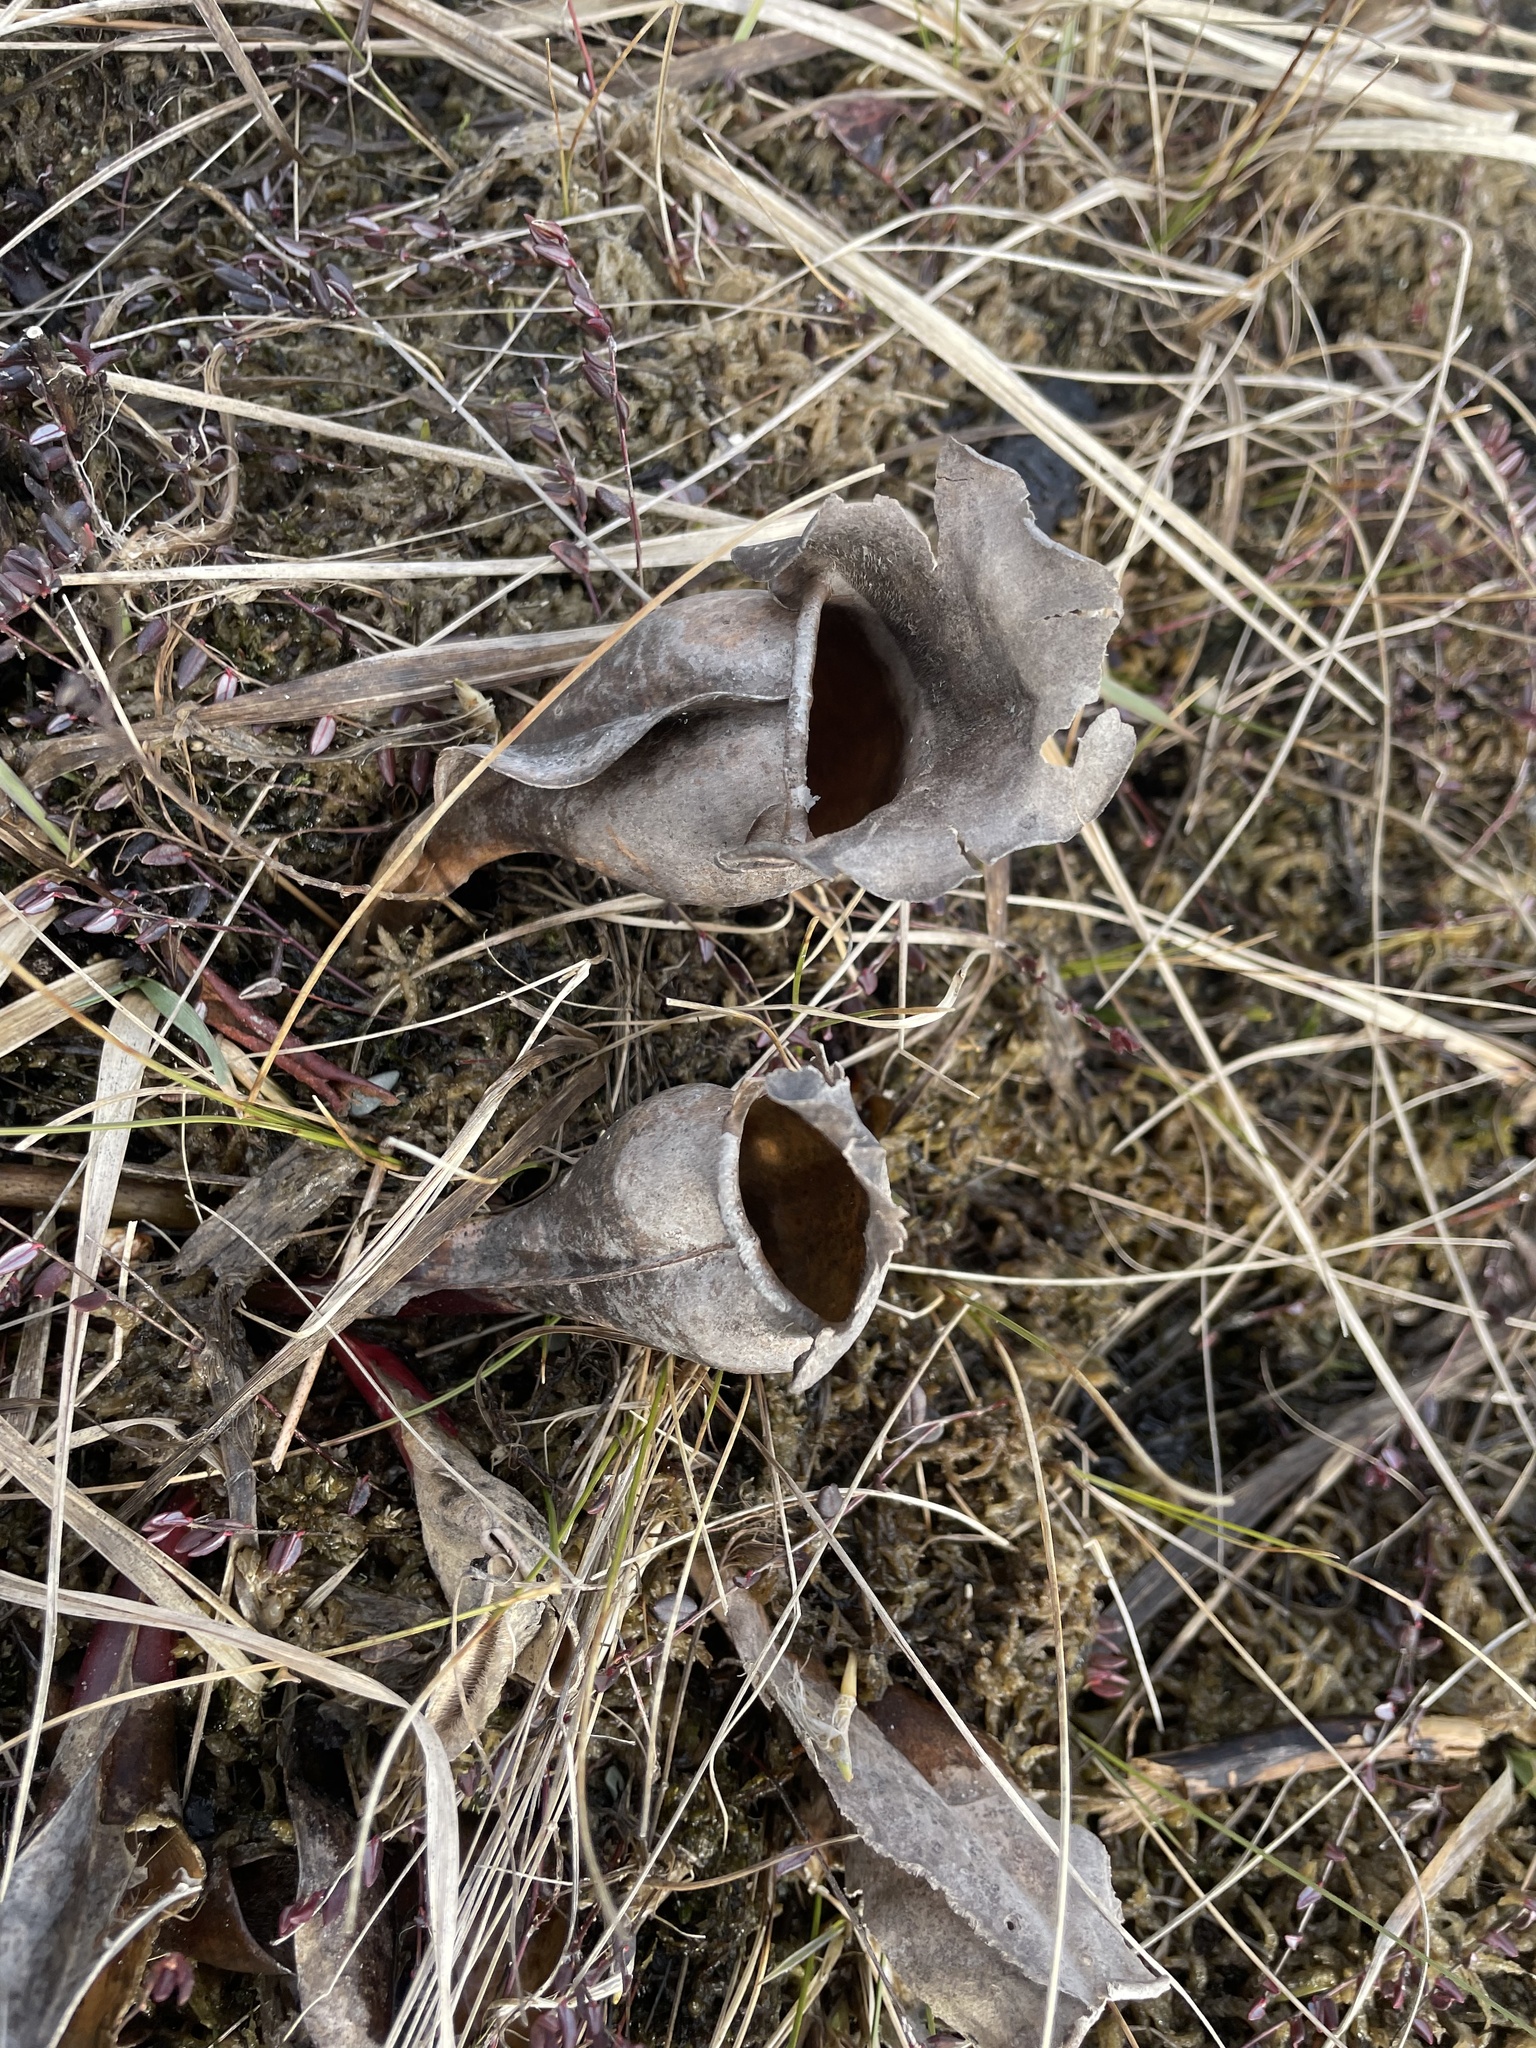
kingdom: Plantae
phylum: Tracheophyta
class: Magnoliopsida
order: Ericales
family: Sarraceniaceae
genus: Sarracenia
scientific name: Sarracenia purpurea
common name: Pitcherplant
